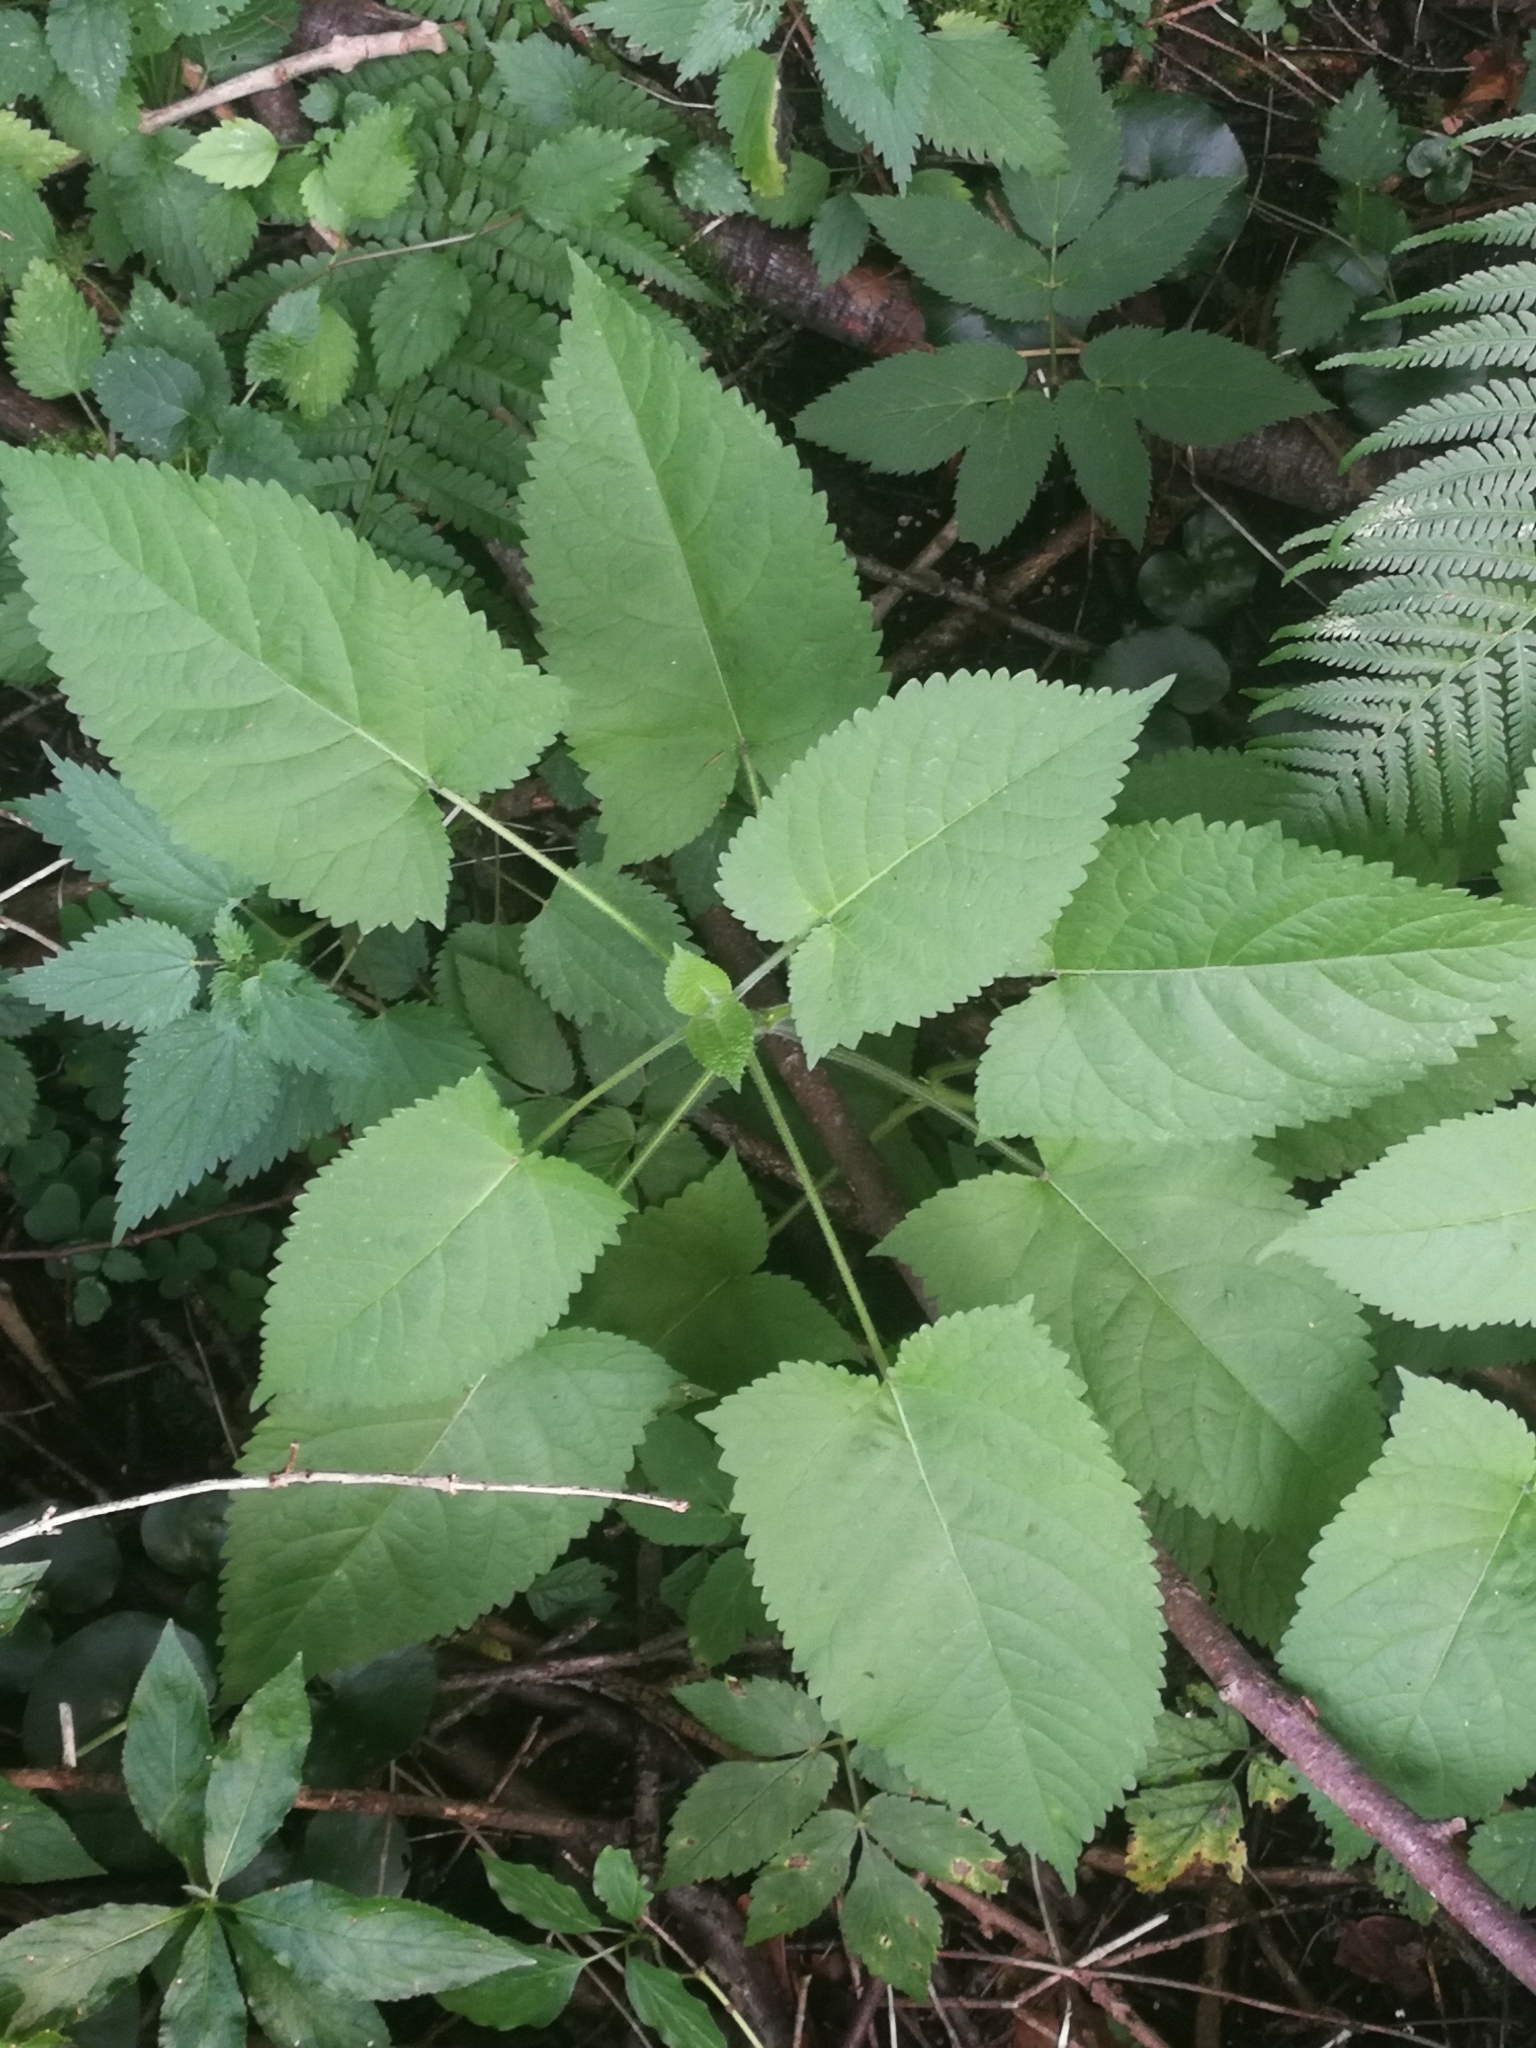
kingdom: Plantae
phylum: Tracheophyta
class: Magnoliopsida
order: Lamiales
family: Lamiaceae
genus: Salvia
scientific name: Salvia glutinosa
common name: Sticky clary
